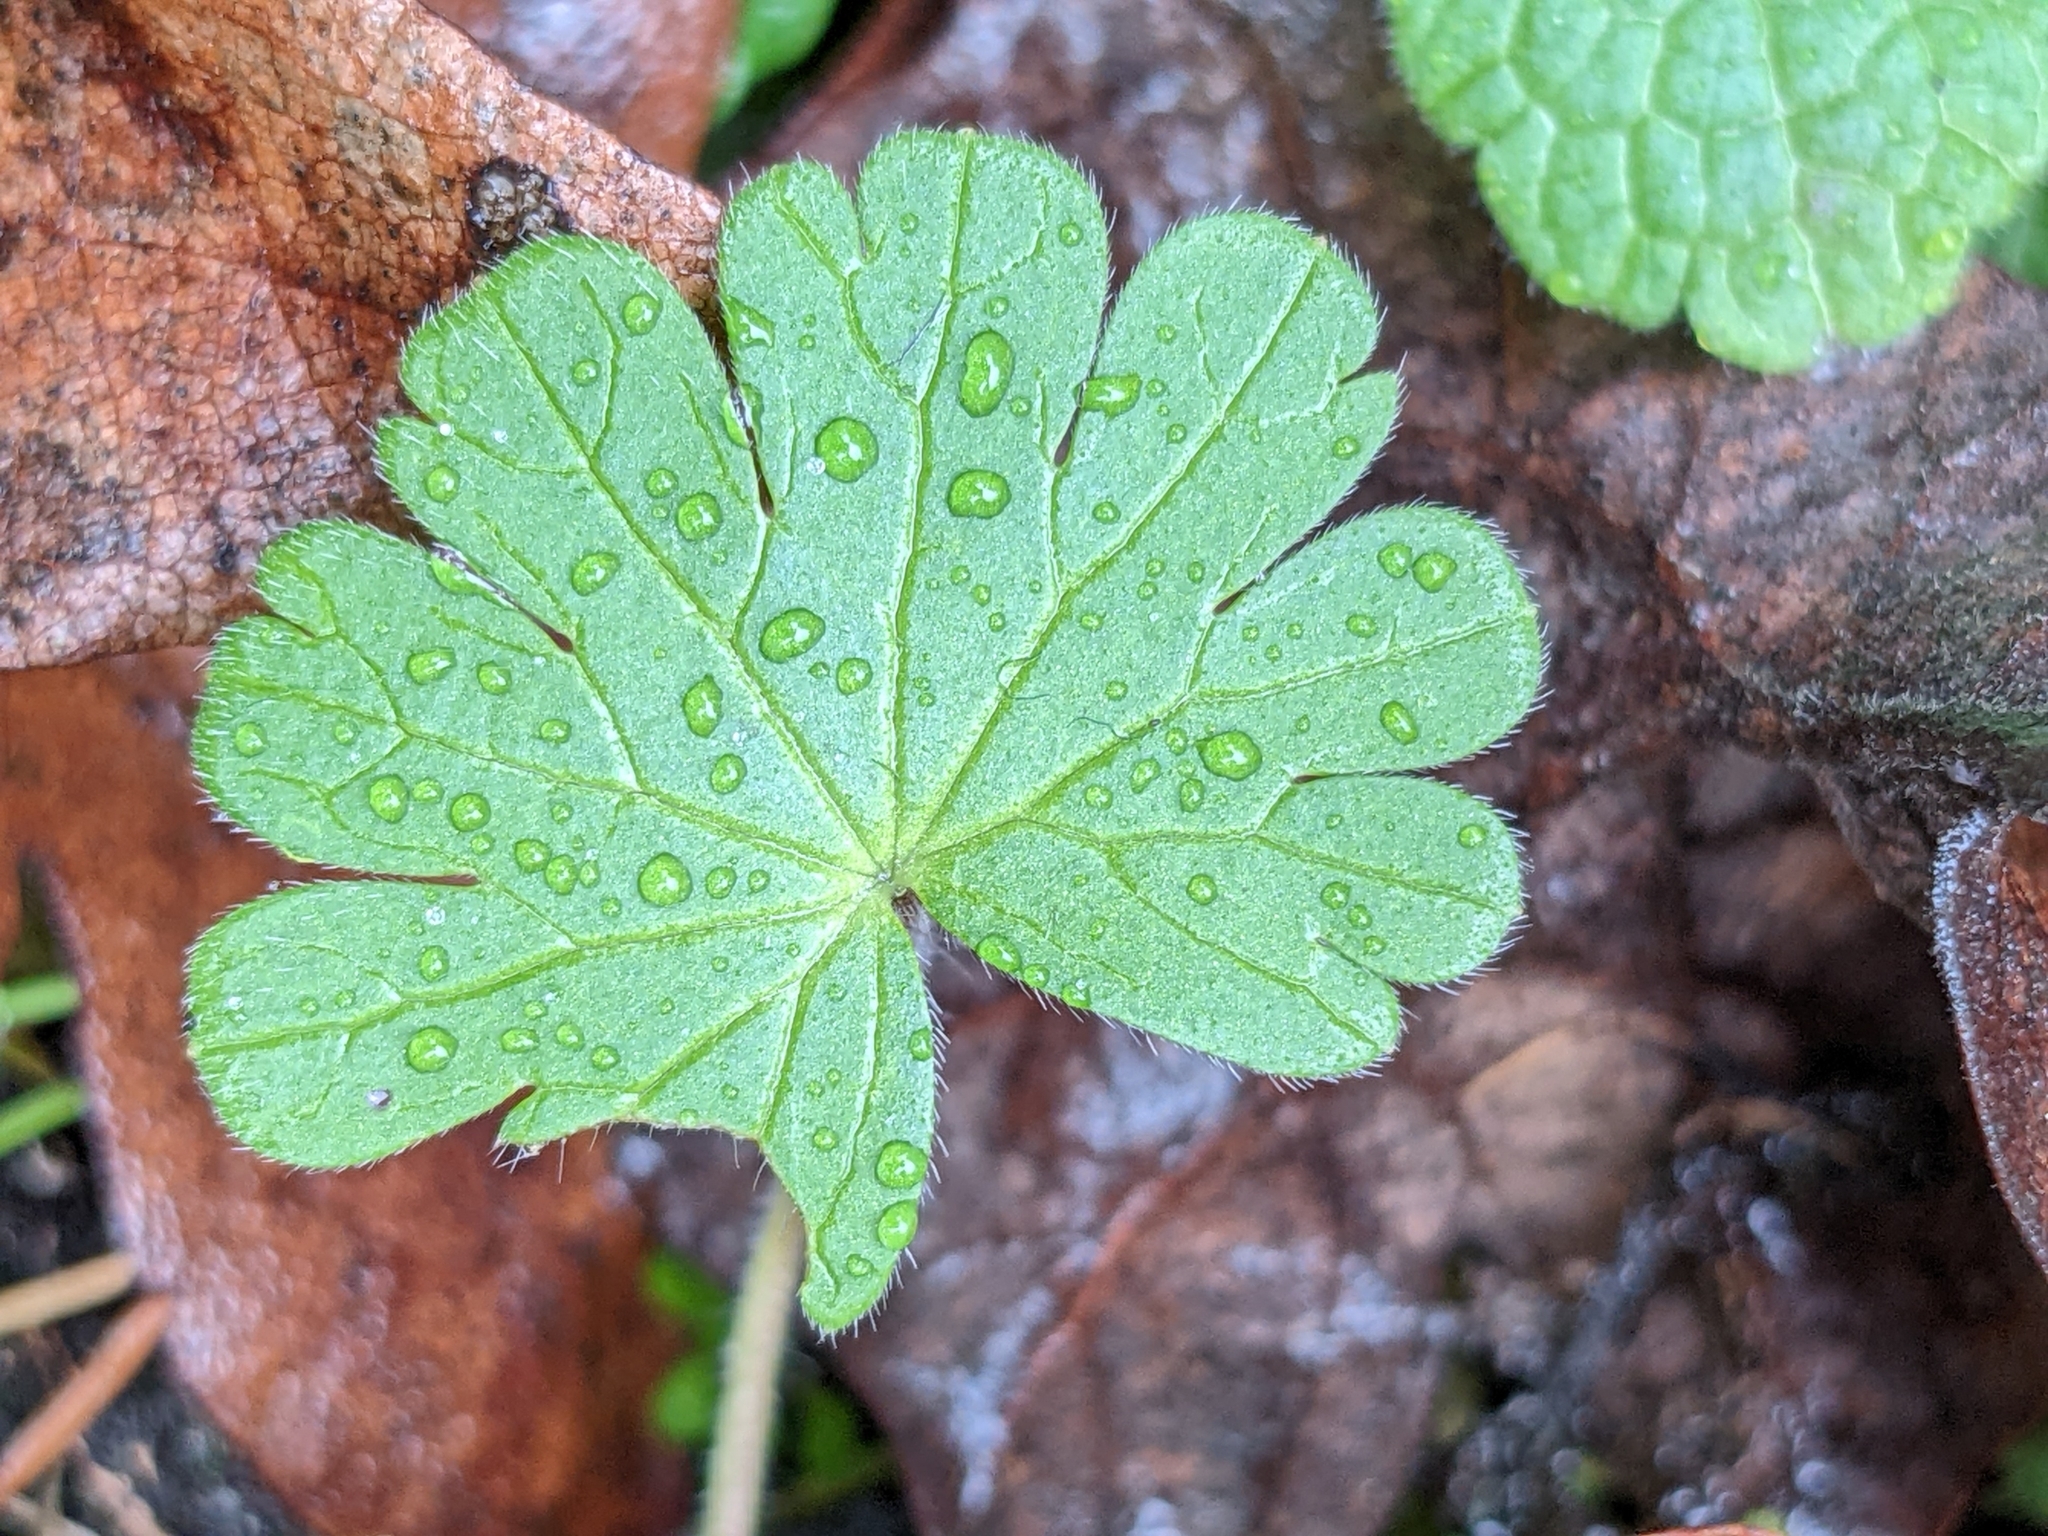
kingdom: Plantae
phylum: Tracheophyta
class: Magnoliopsida
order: Geraniales
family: Geraniaceae
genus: Geranium
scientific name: Geranium molle
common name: Dove's-foot crane's-bill
